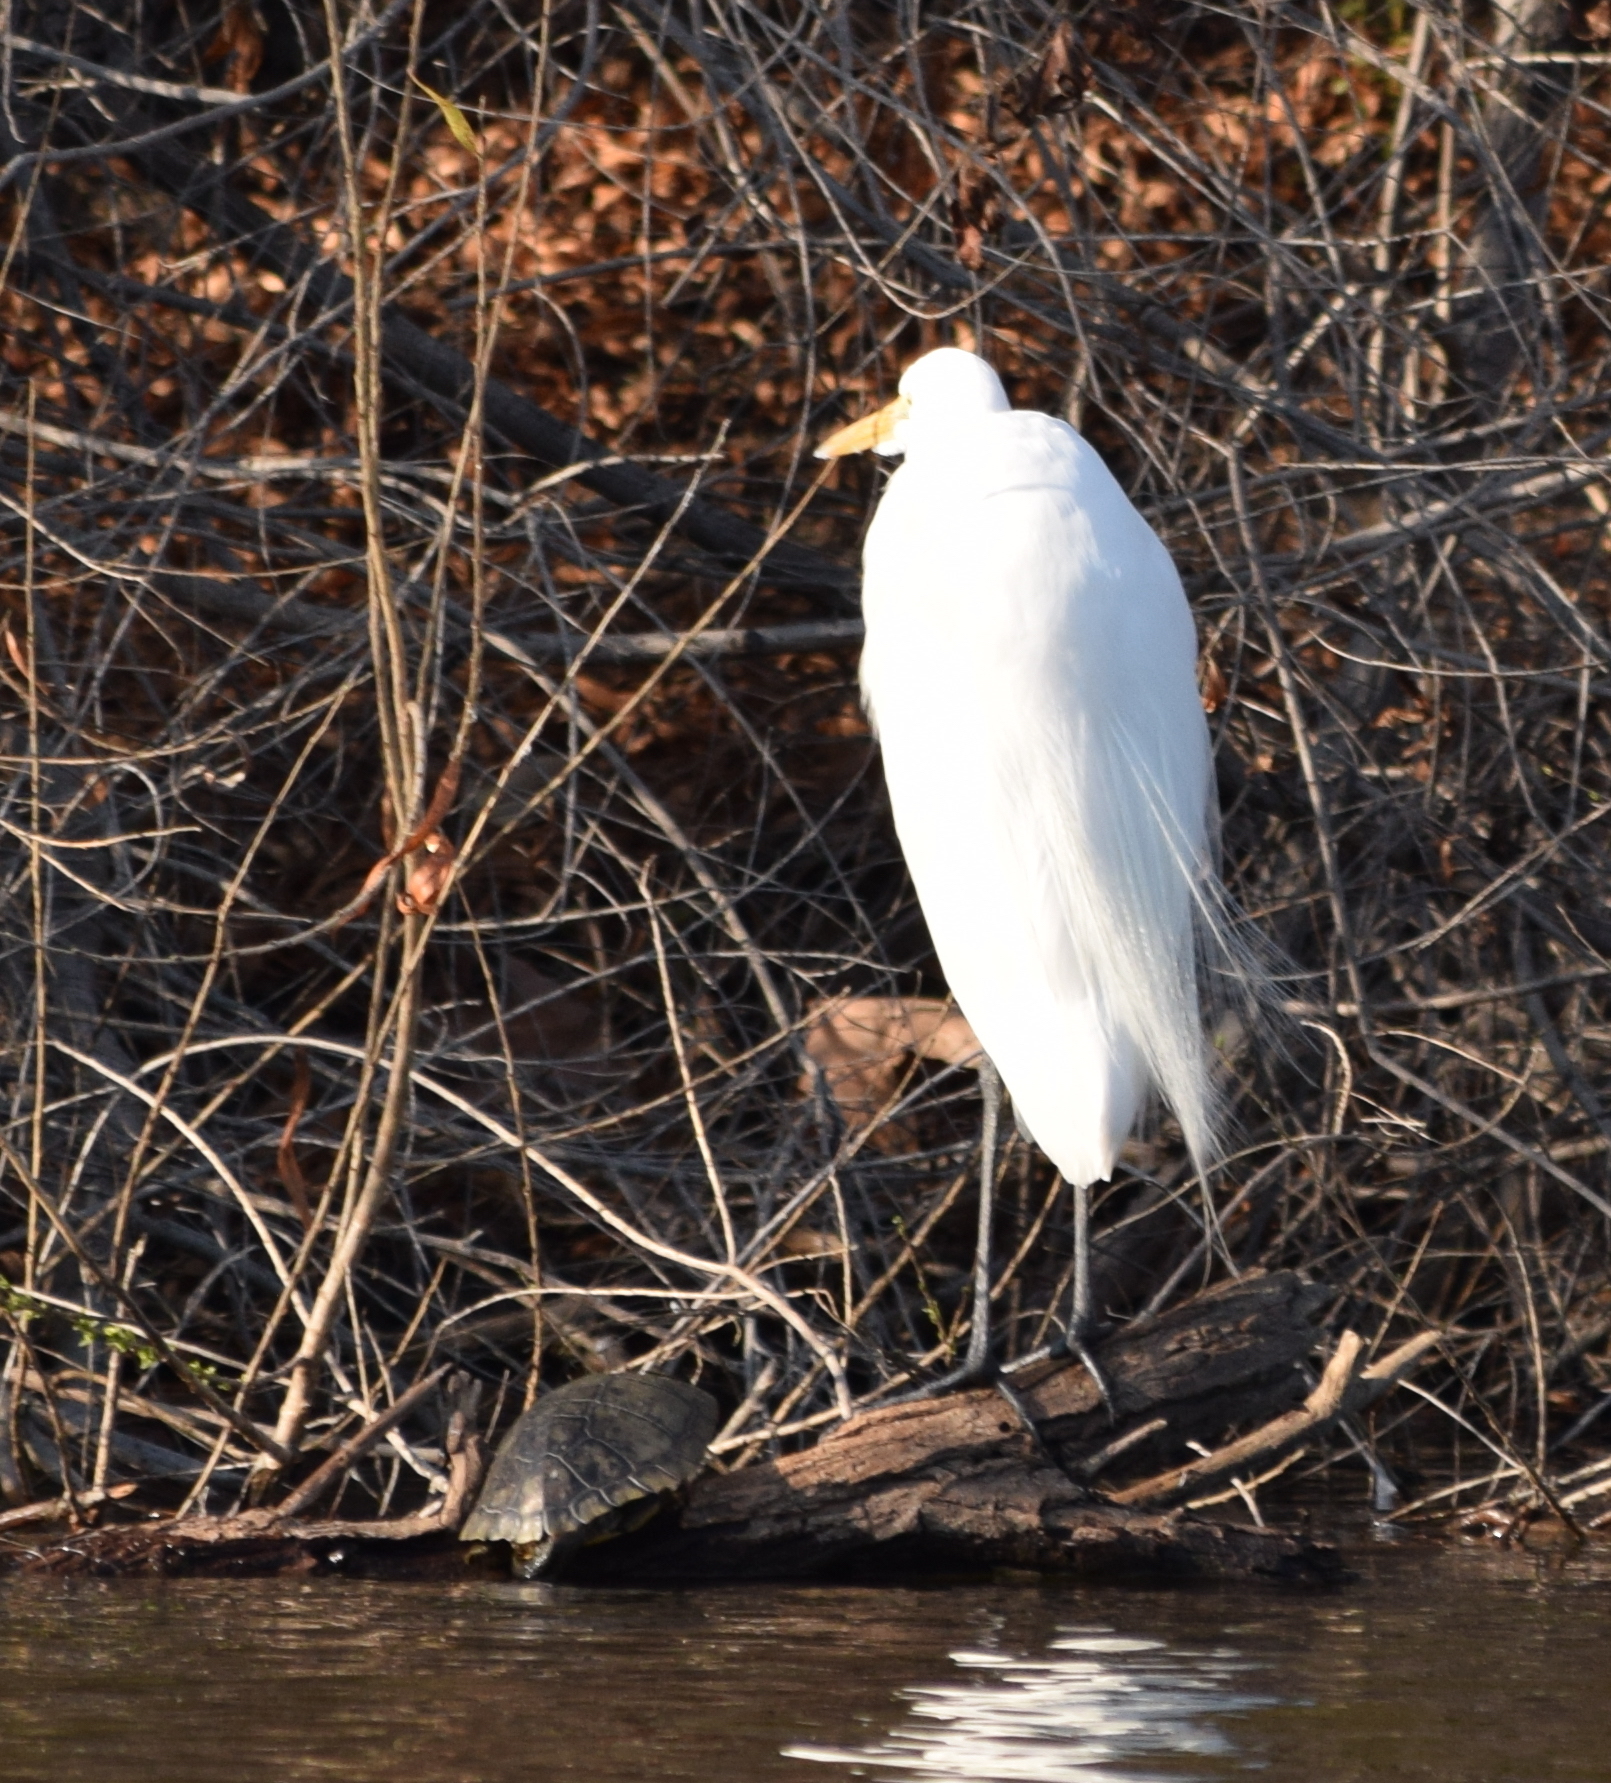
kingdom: Animalia
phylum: Chordata
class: Aves
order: Pelecaniformes
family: Ardeidae
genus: Ardea
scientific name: Ardea alba
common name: Great egret
